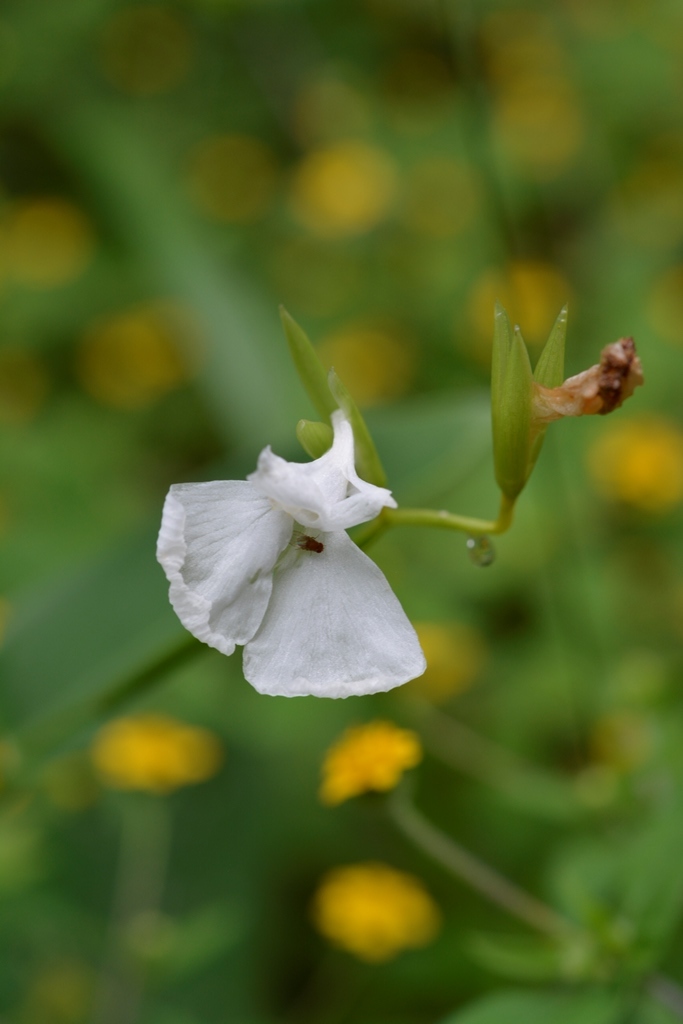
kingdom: Plantae
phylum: Tracheophyta
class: Liliopsida
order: Zingiberales
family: Marantaceae
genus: Maranta
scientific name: Maranta arundinacea
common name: Arrowroot
